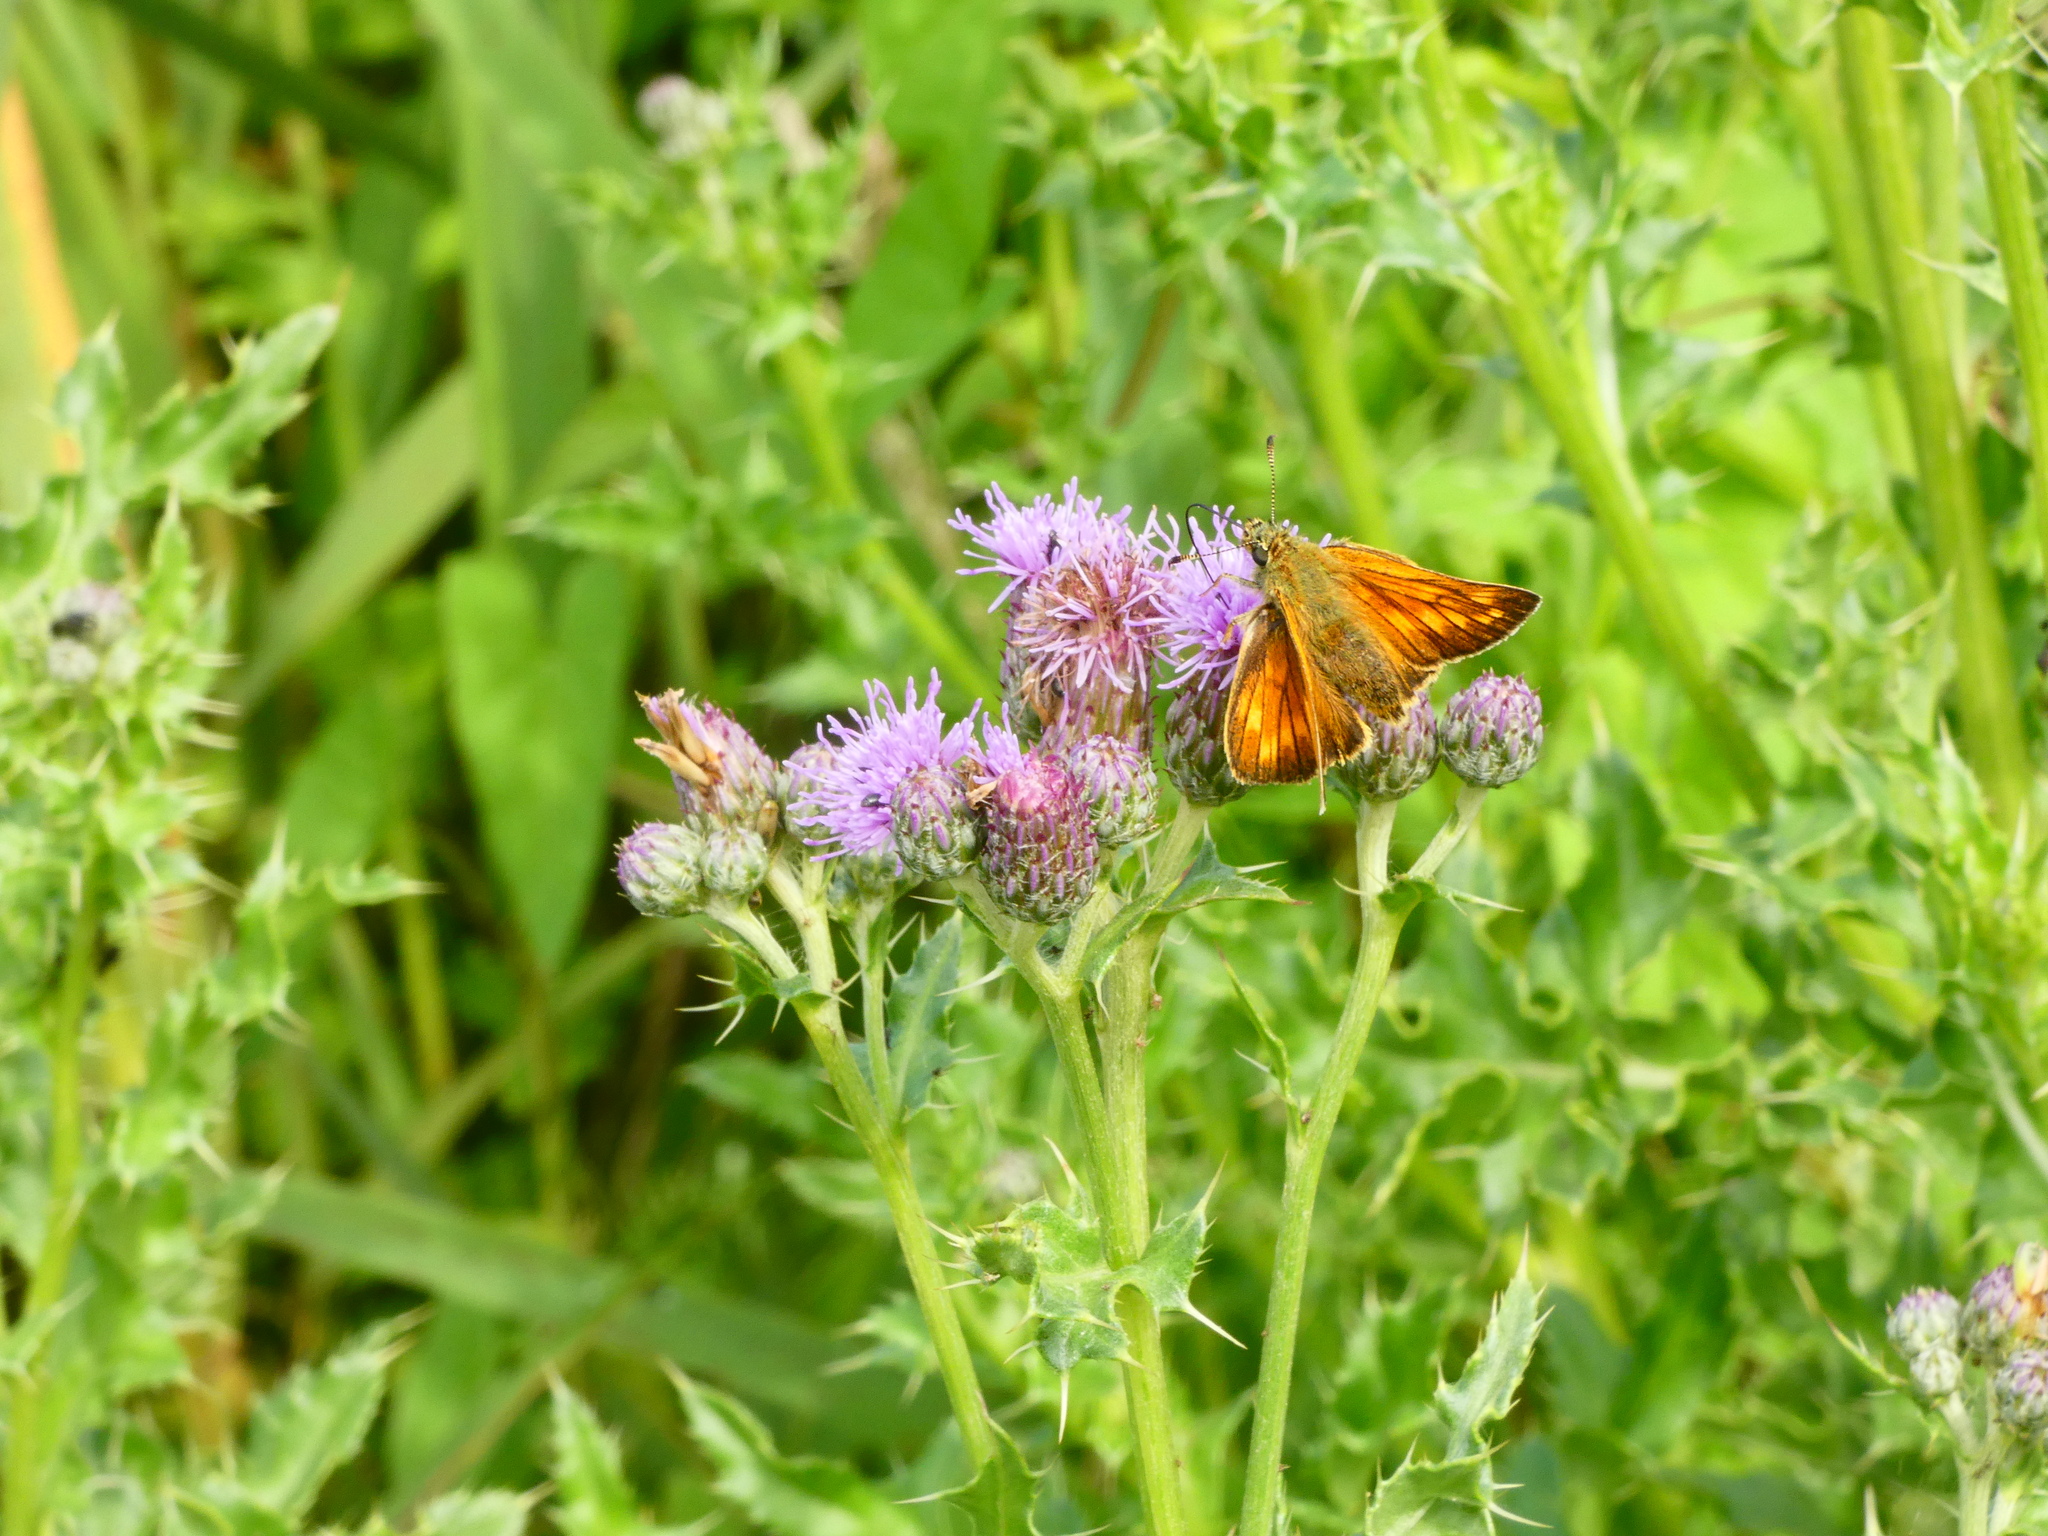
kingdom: Animalia
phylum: Arthropoda
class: Insecta
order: Lepidoptera
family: Hesperiidae
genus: Ochlodes
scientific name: Ochlodes venata
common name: Large skipper
